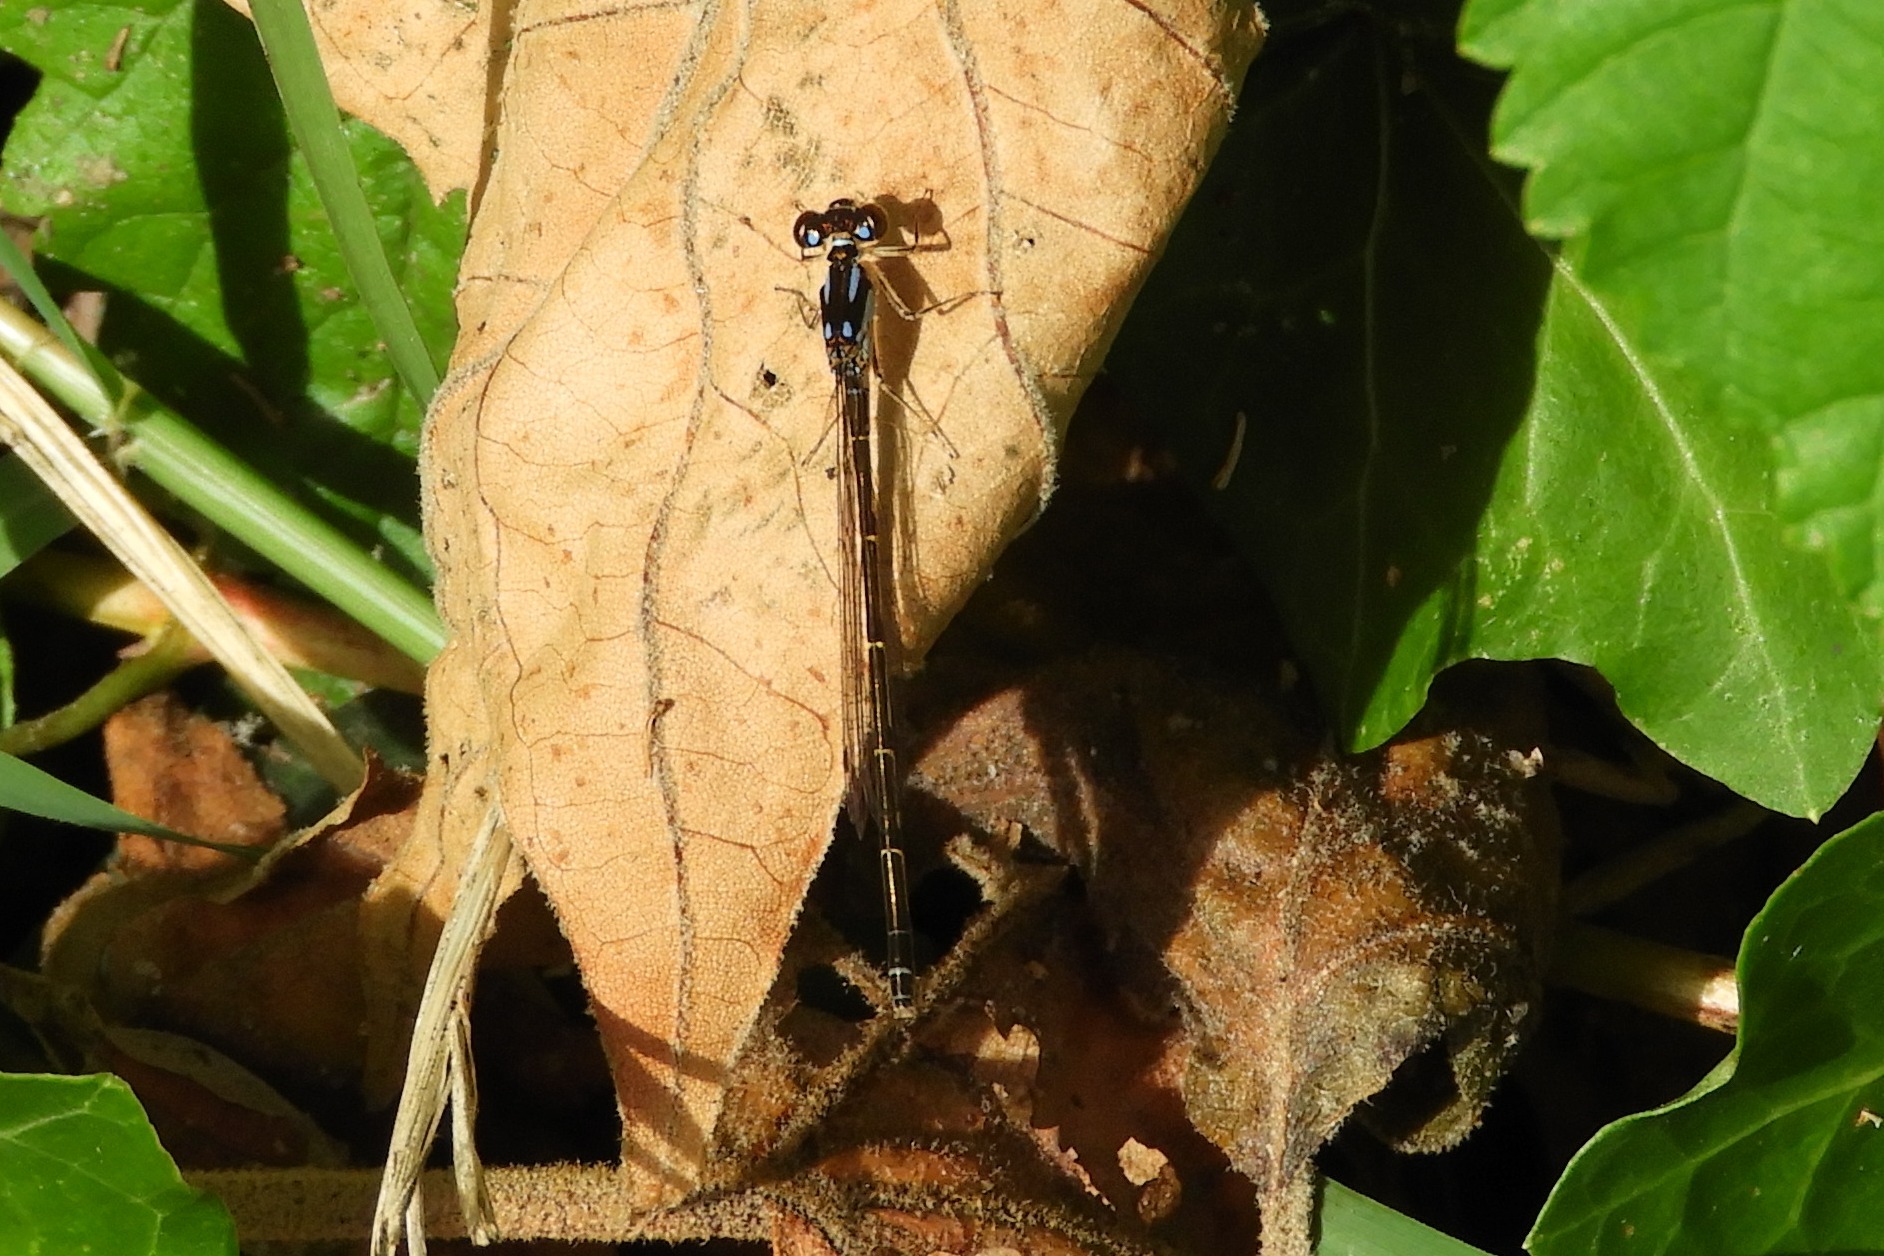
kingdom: Animalia
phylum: Arthropoda
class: Insecta
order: Odonata
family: Coenagrionidae
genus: Ischnura
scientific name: Ischnura posita
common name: Fragile forktail
